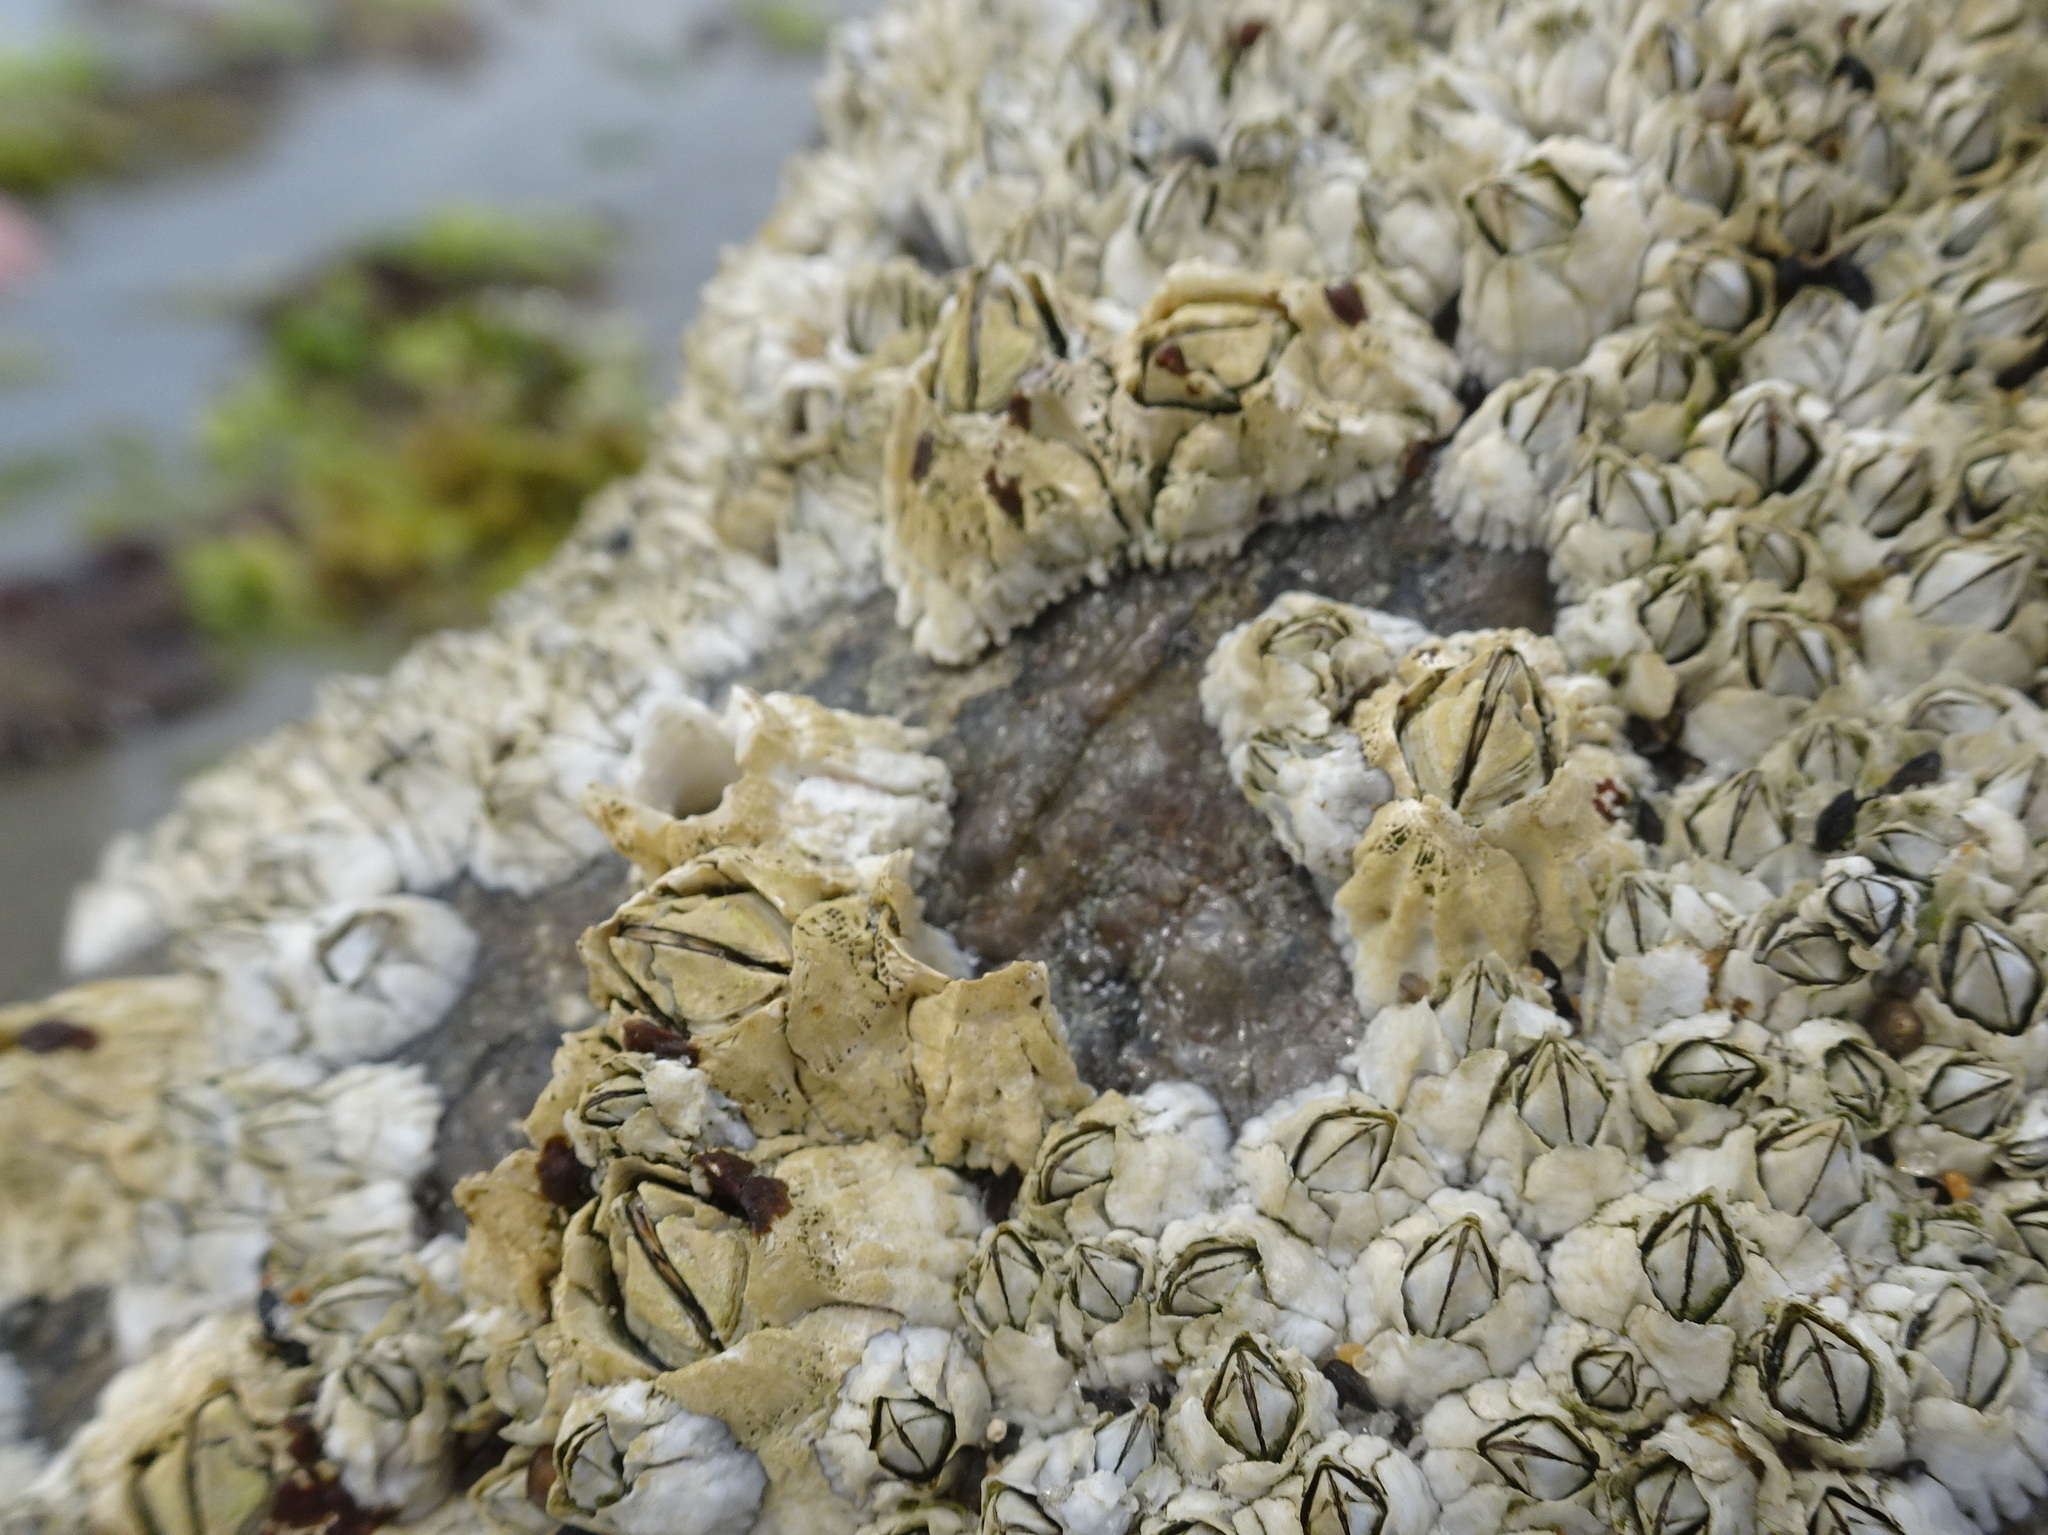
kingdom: Animalia
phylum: Arthropoda
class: Maxillopoda
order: Sessilia
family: Archaeobalanidae
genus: Semibalanus
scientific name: Semibalanus balanoides
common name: Acorn barnacle
